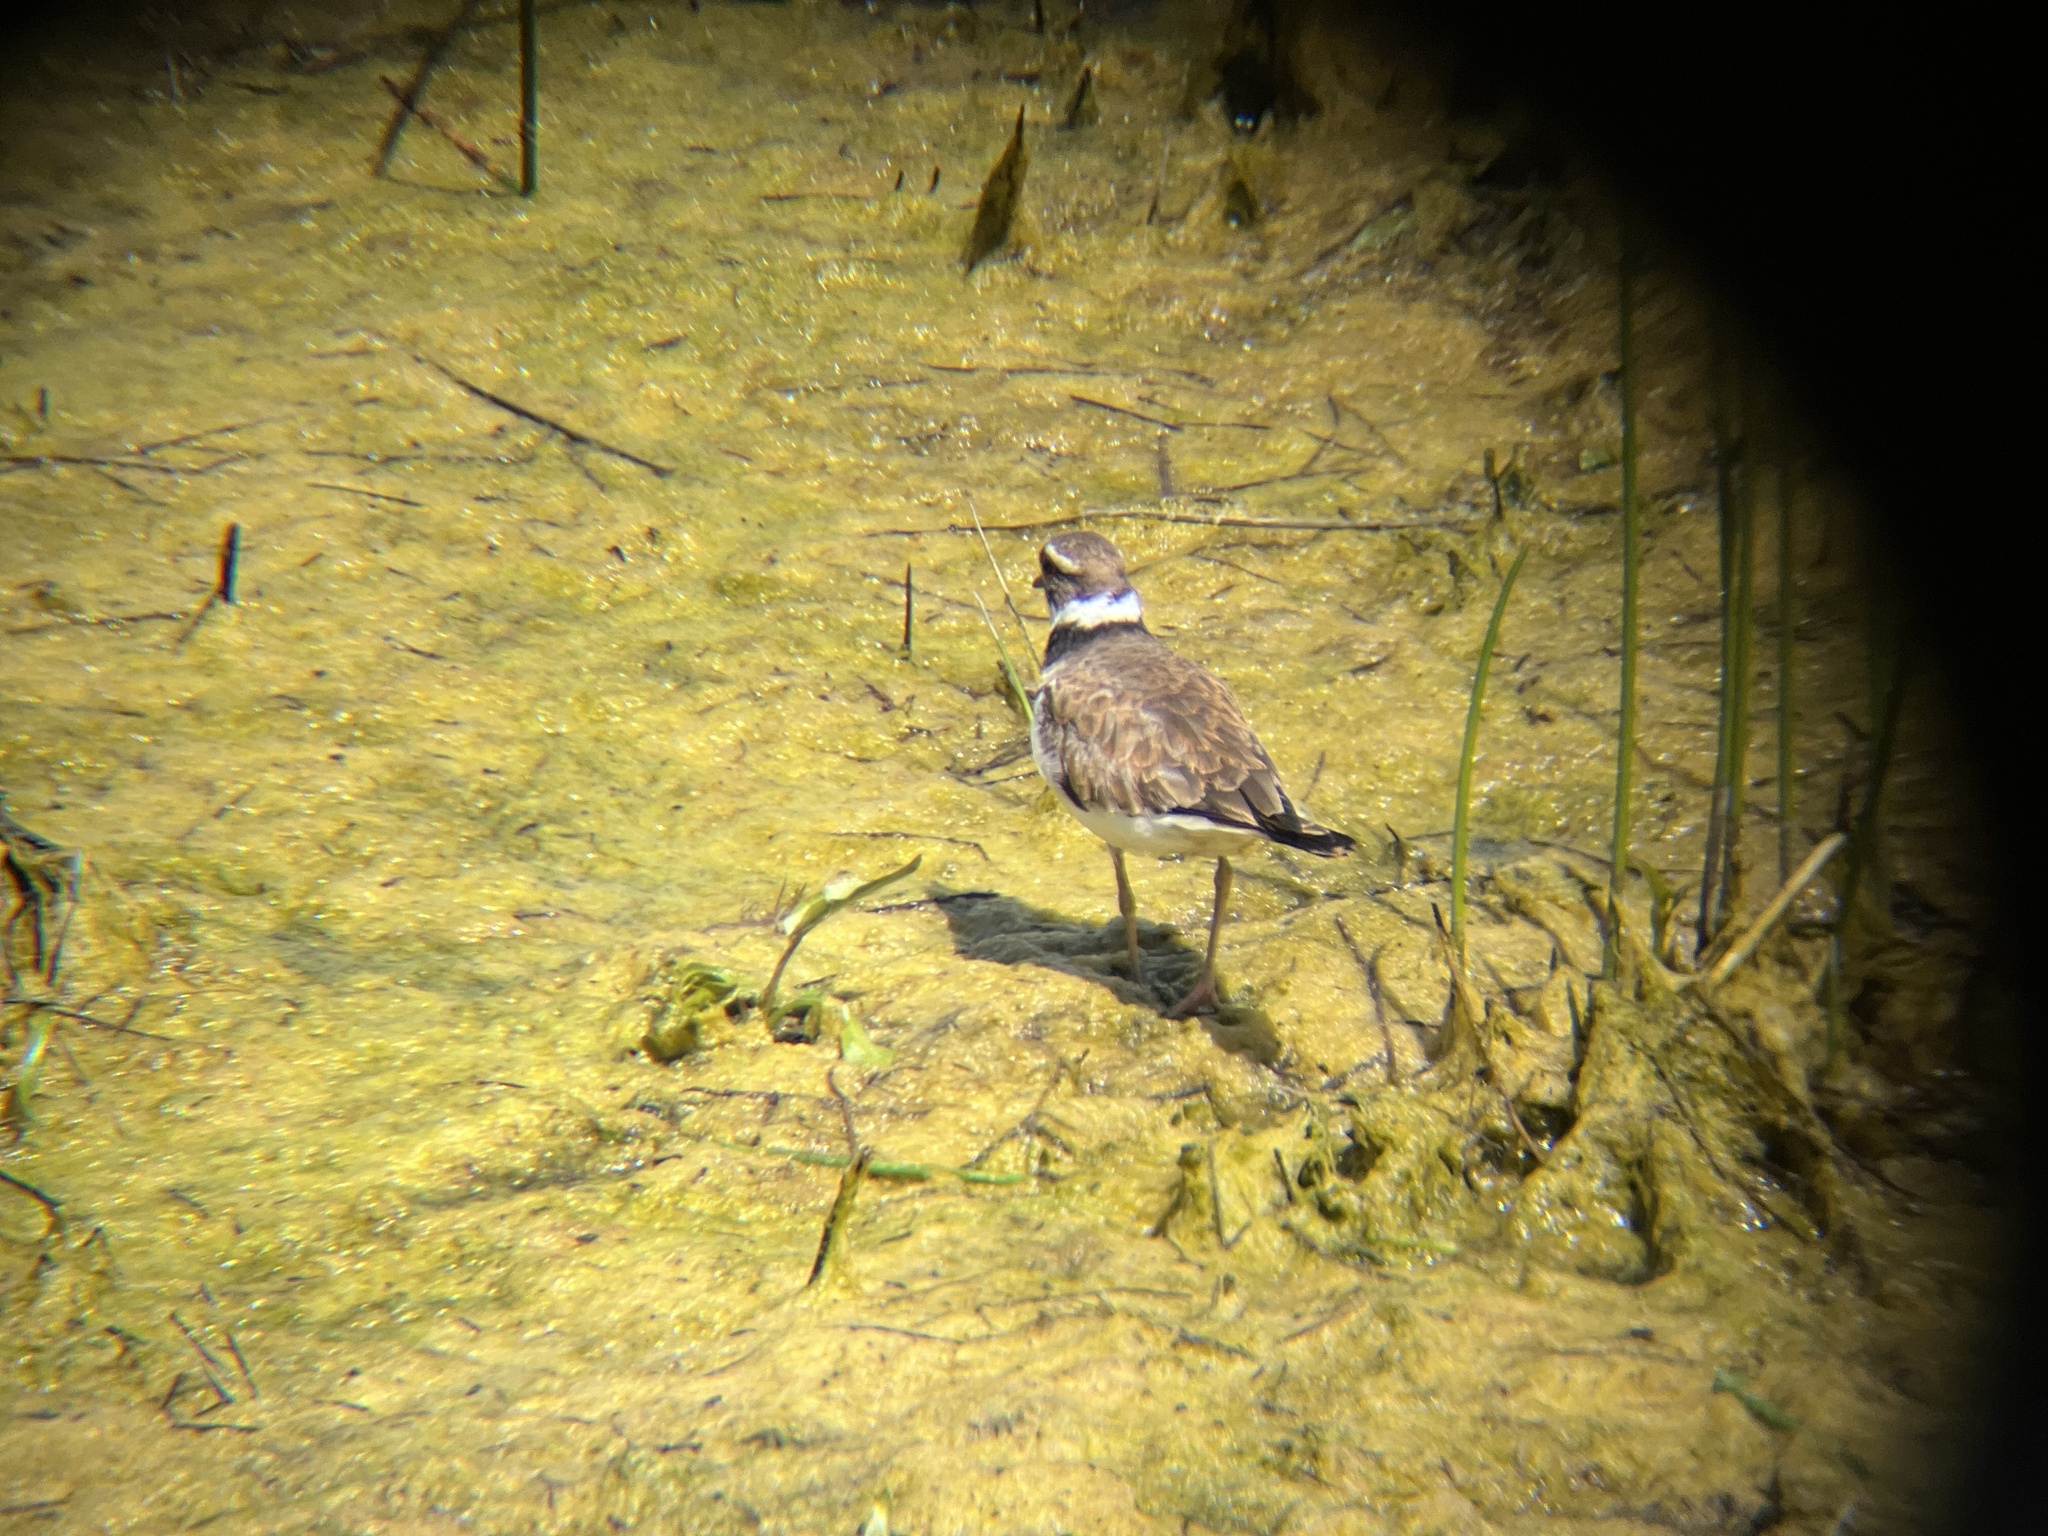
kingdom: Animalia
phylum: Chordata
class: Aves
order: Charadriiformes
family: Charadriidae
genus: Charadrius
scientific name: Charadrius vociferus
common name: Killdeer
